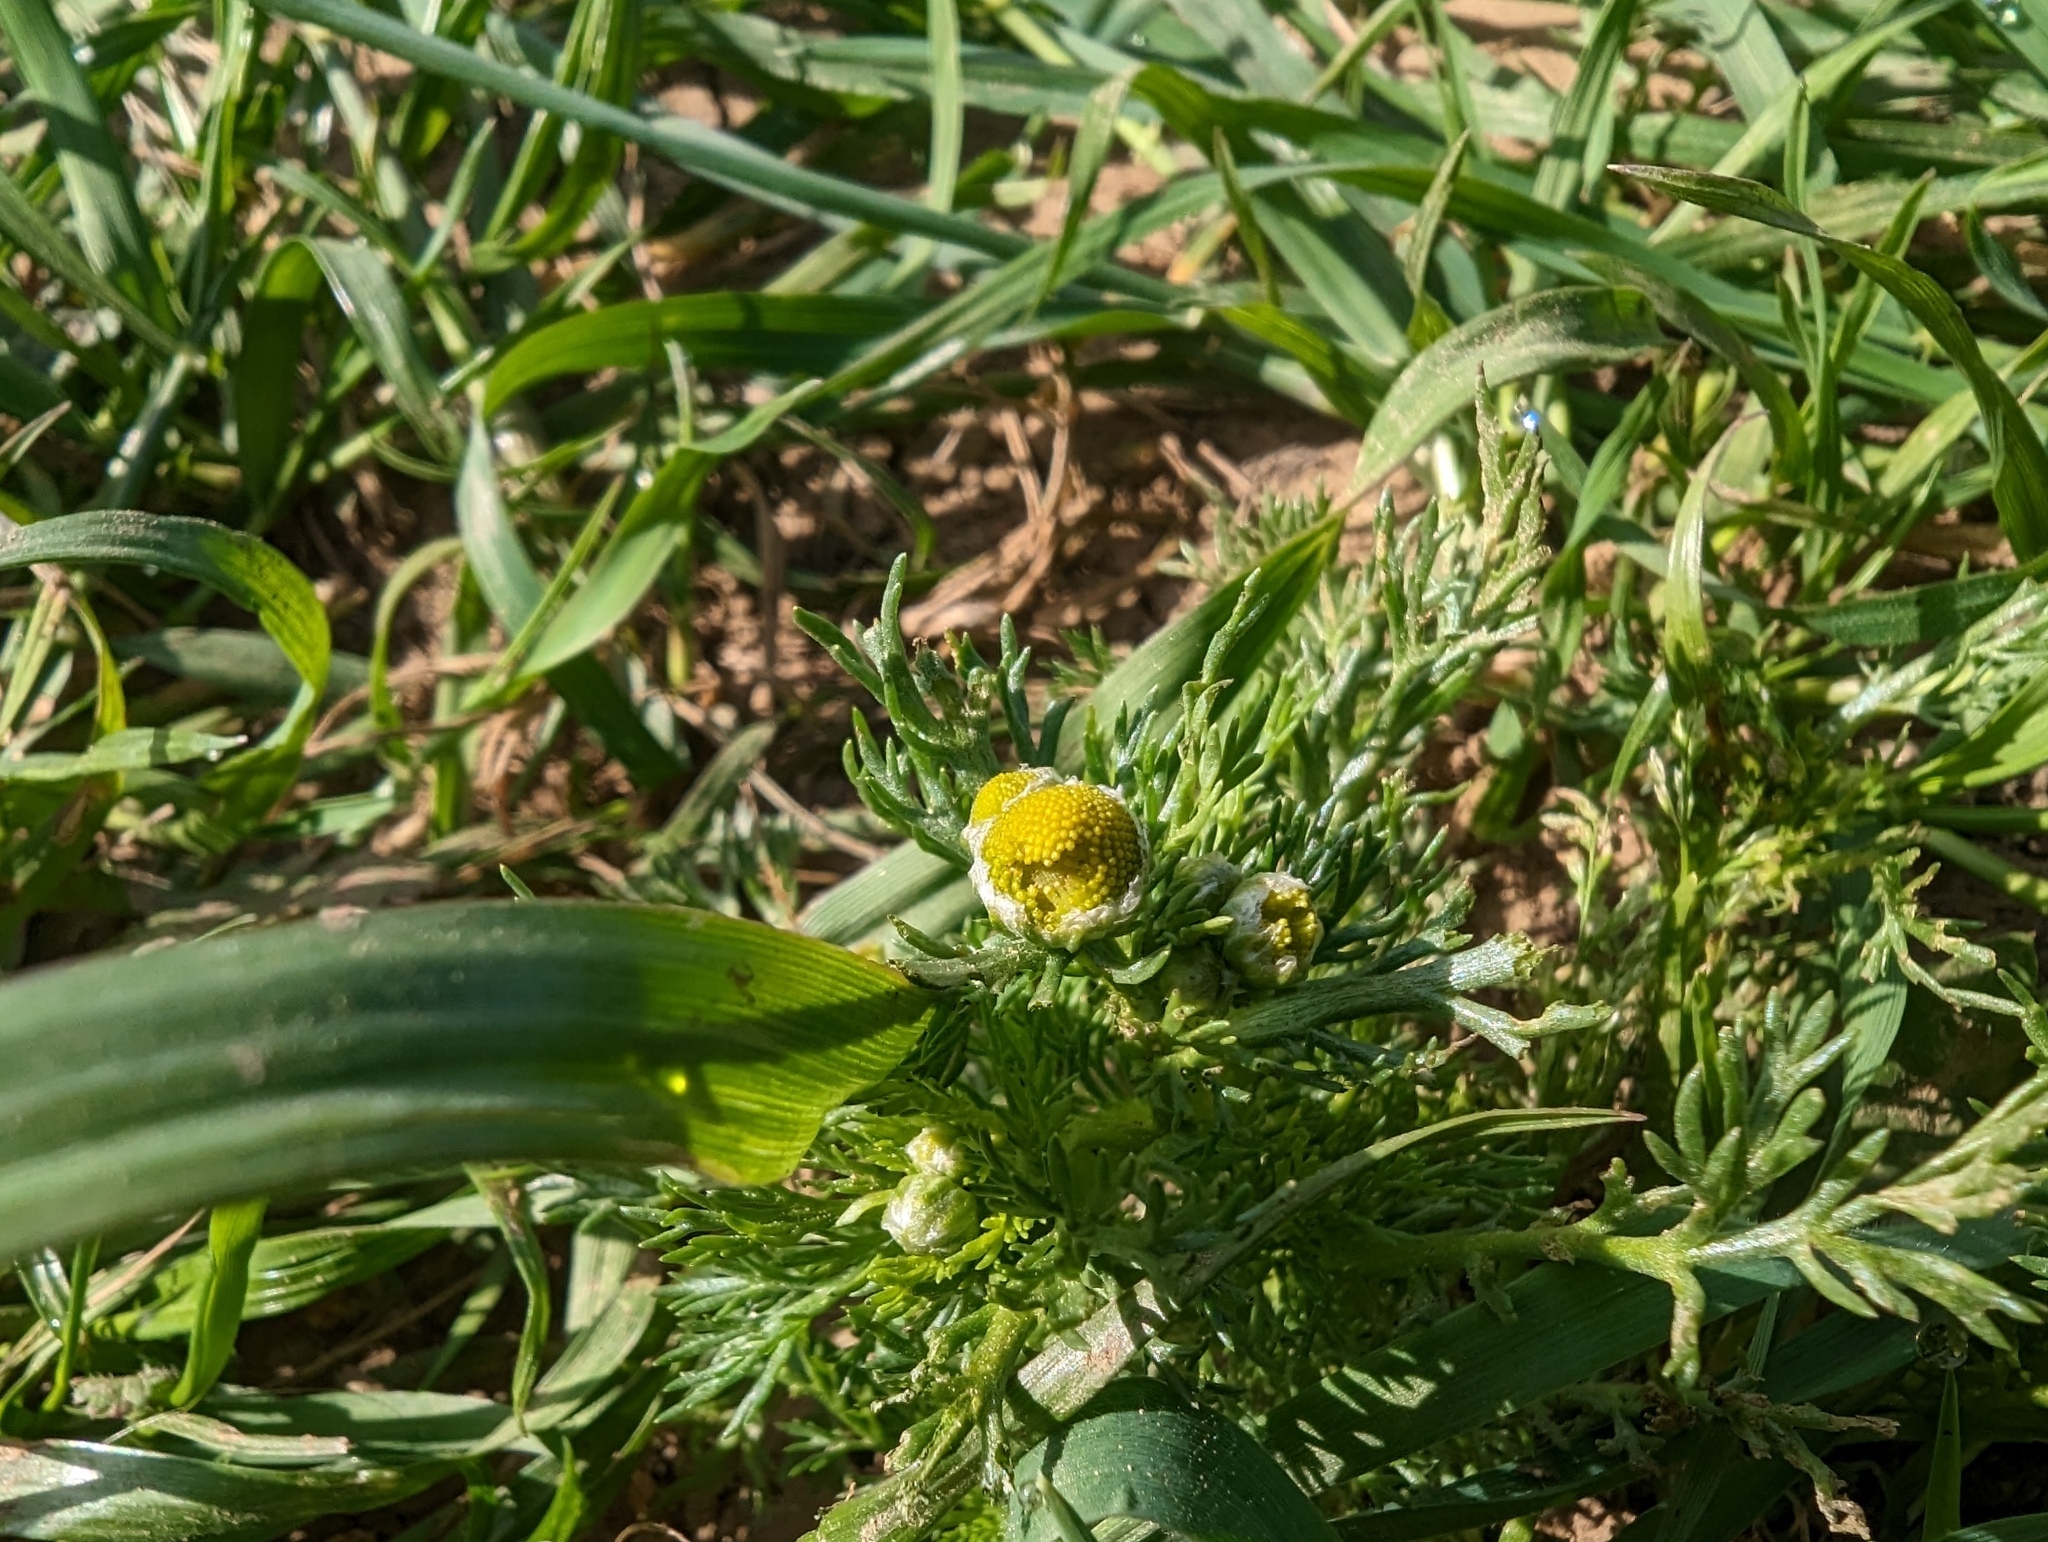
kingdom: Plantae
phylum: Tracheophyta
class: Magnoliopsida
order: Asterales
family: Asteraceae
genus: Matricaria
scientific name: Matricaria discoidea
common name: Disc mayweed
